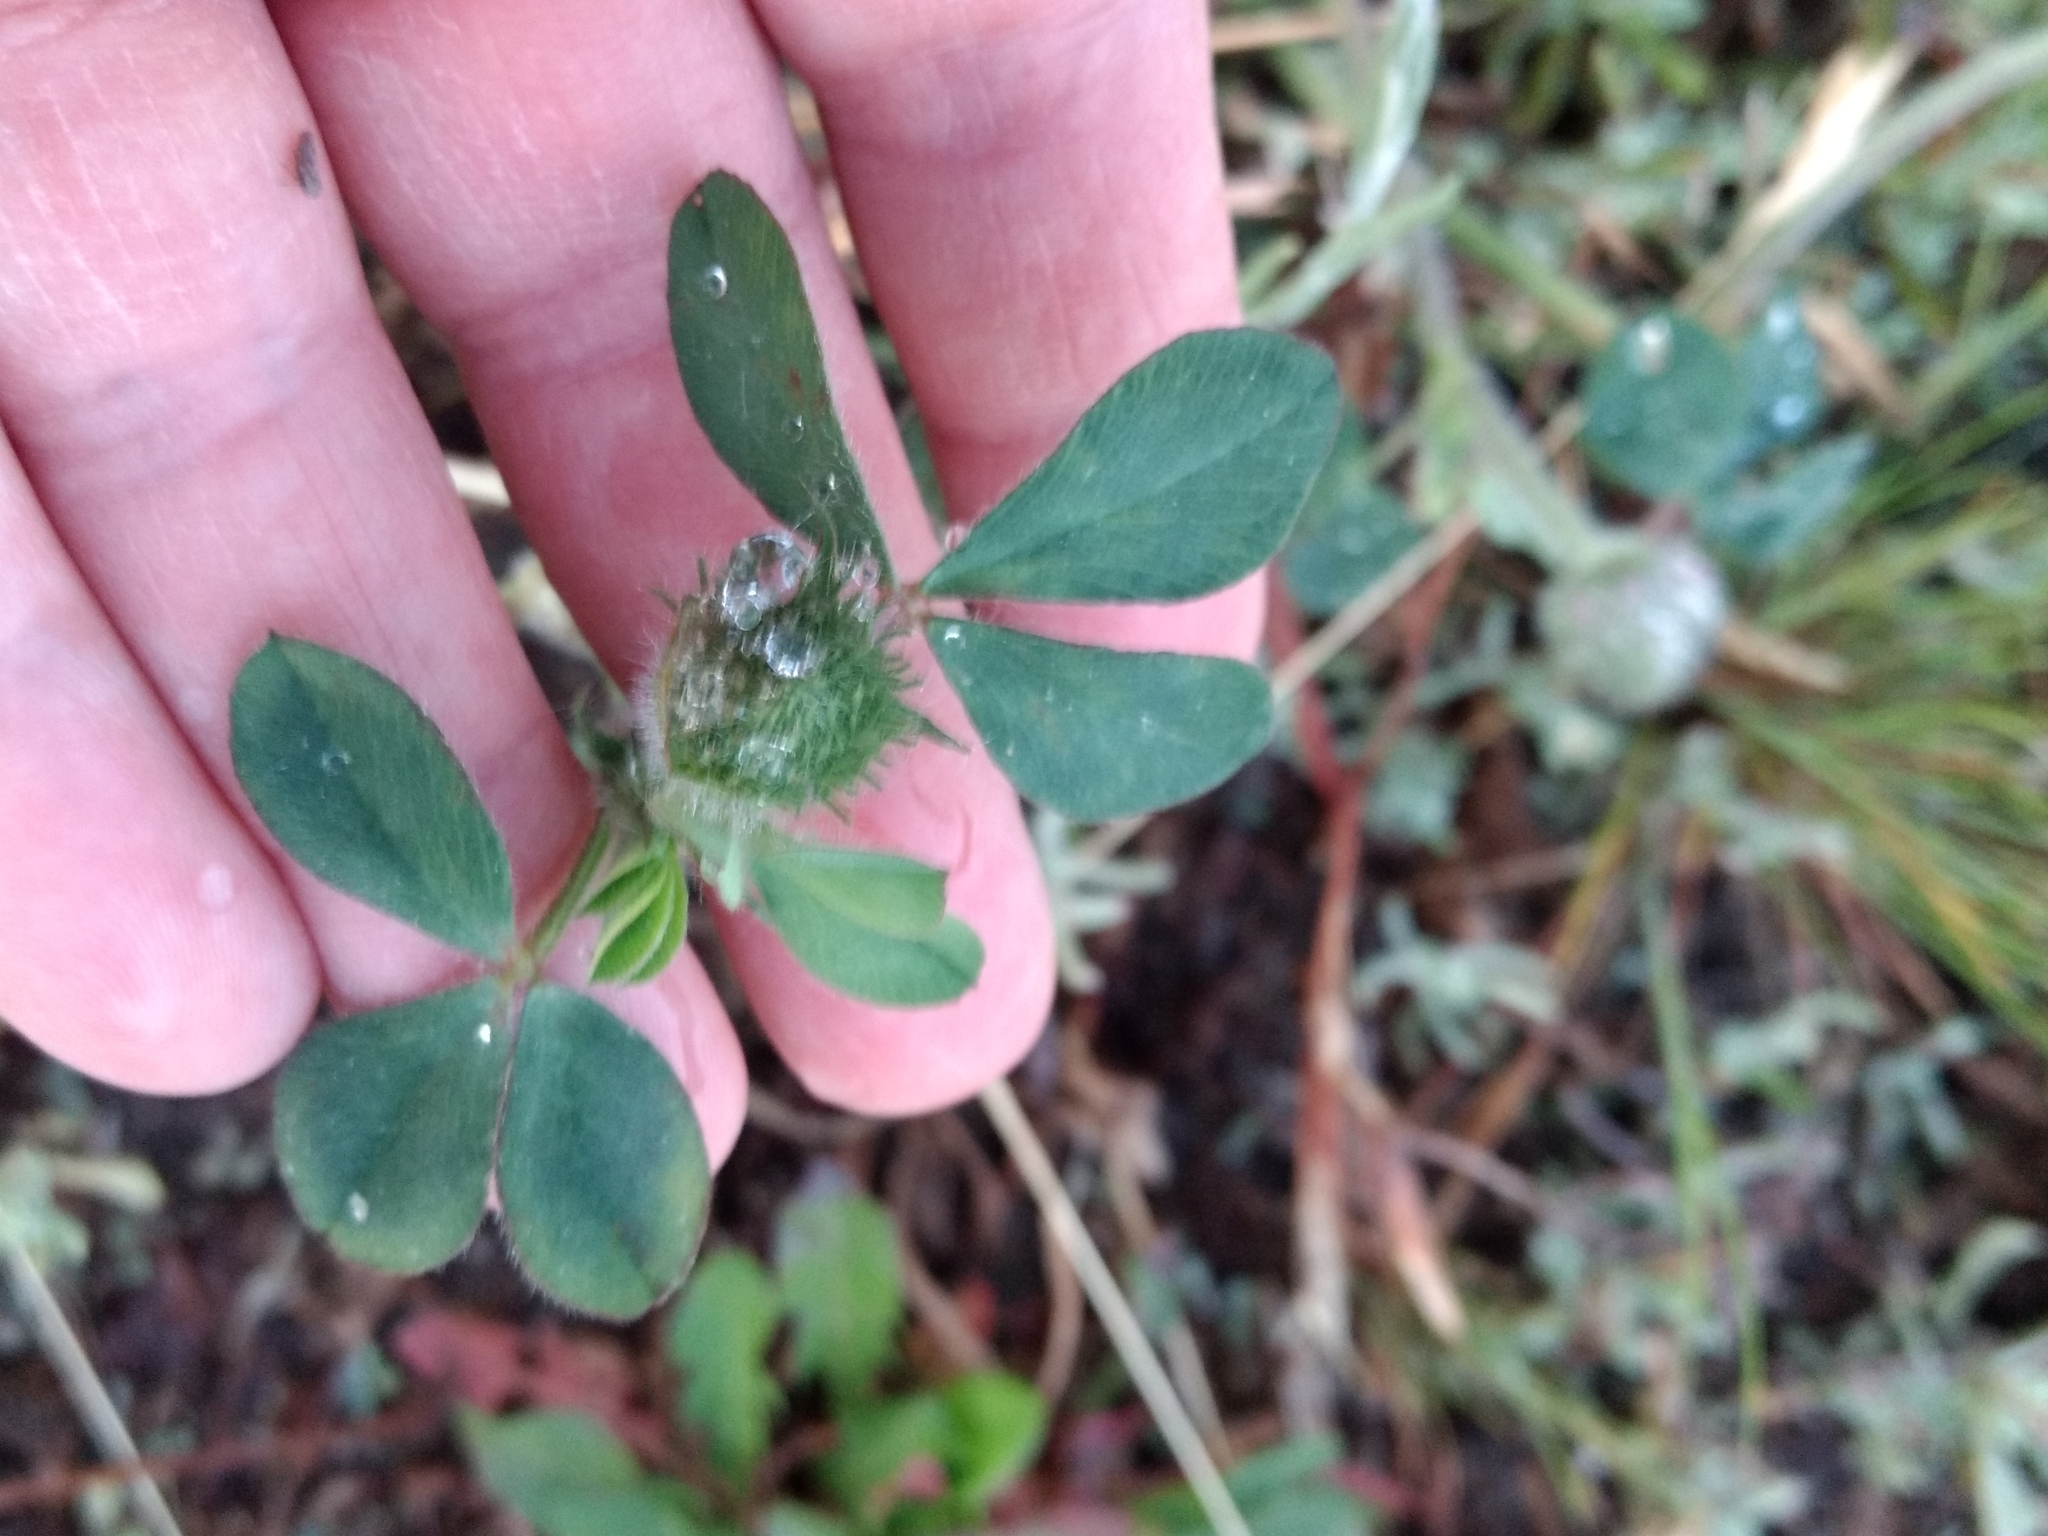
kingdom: Plantae
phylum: Tracheophyta
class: Magnoliopsida
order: Fabales
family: Fabaceae
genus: Trifolium
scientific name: Trifolium hirtum
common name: Rose clover
